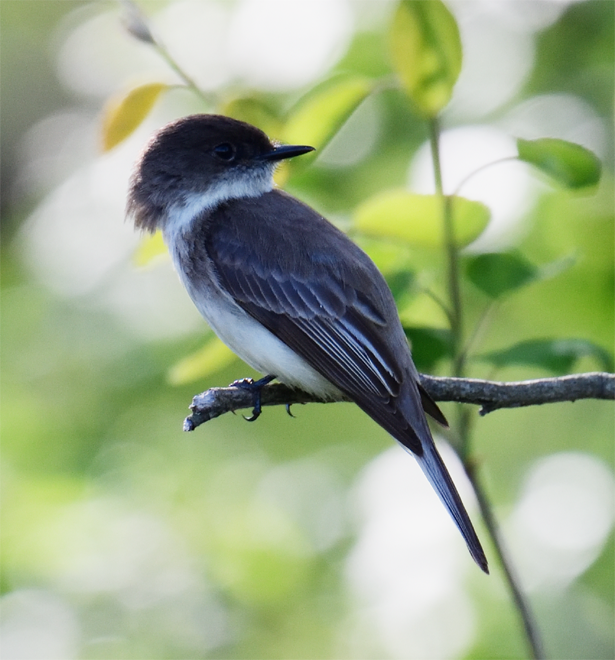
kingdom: Animalia
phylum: Chordata
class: Aves
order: Passeriformes
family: Tyrannidae
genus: Sayornis
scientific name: Sayornis phoebe
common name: Eastern phoebe
